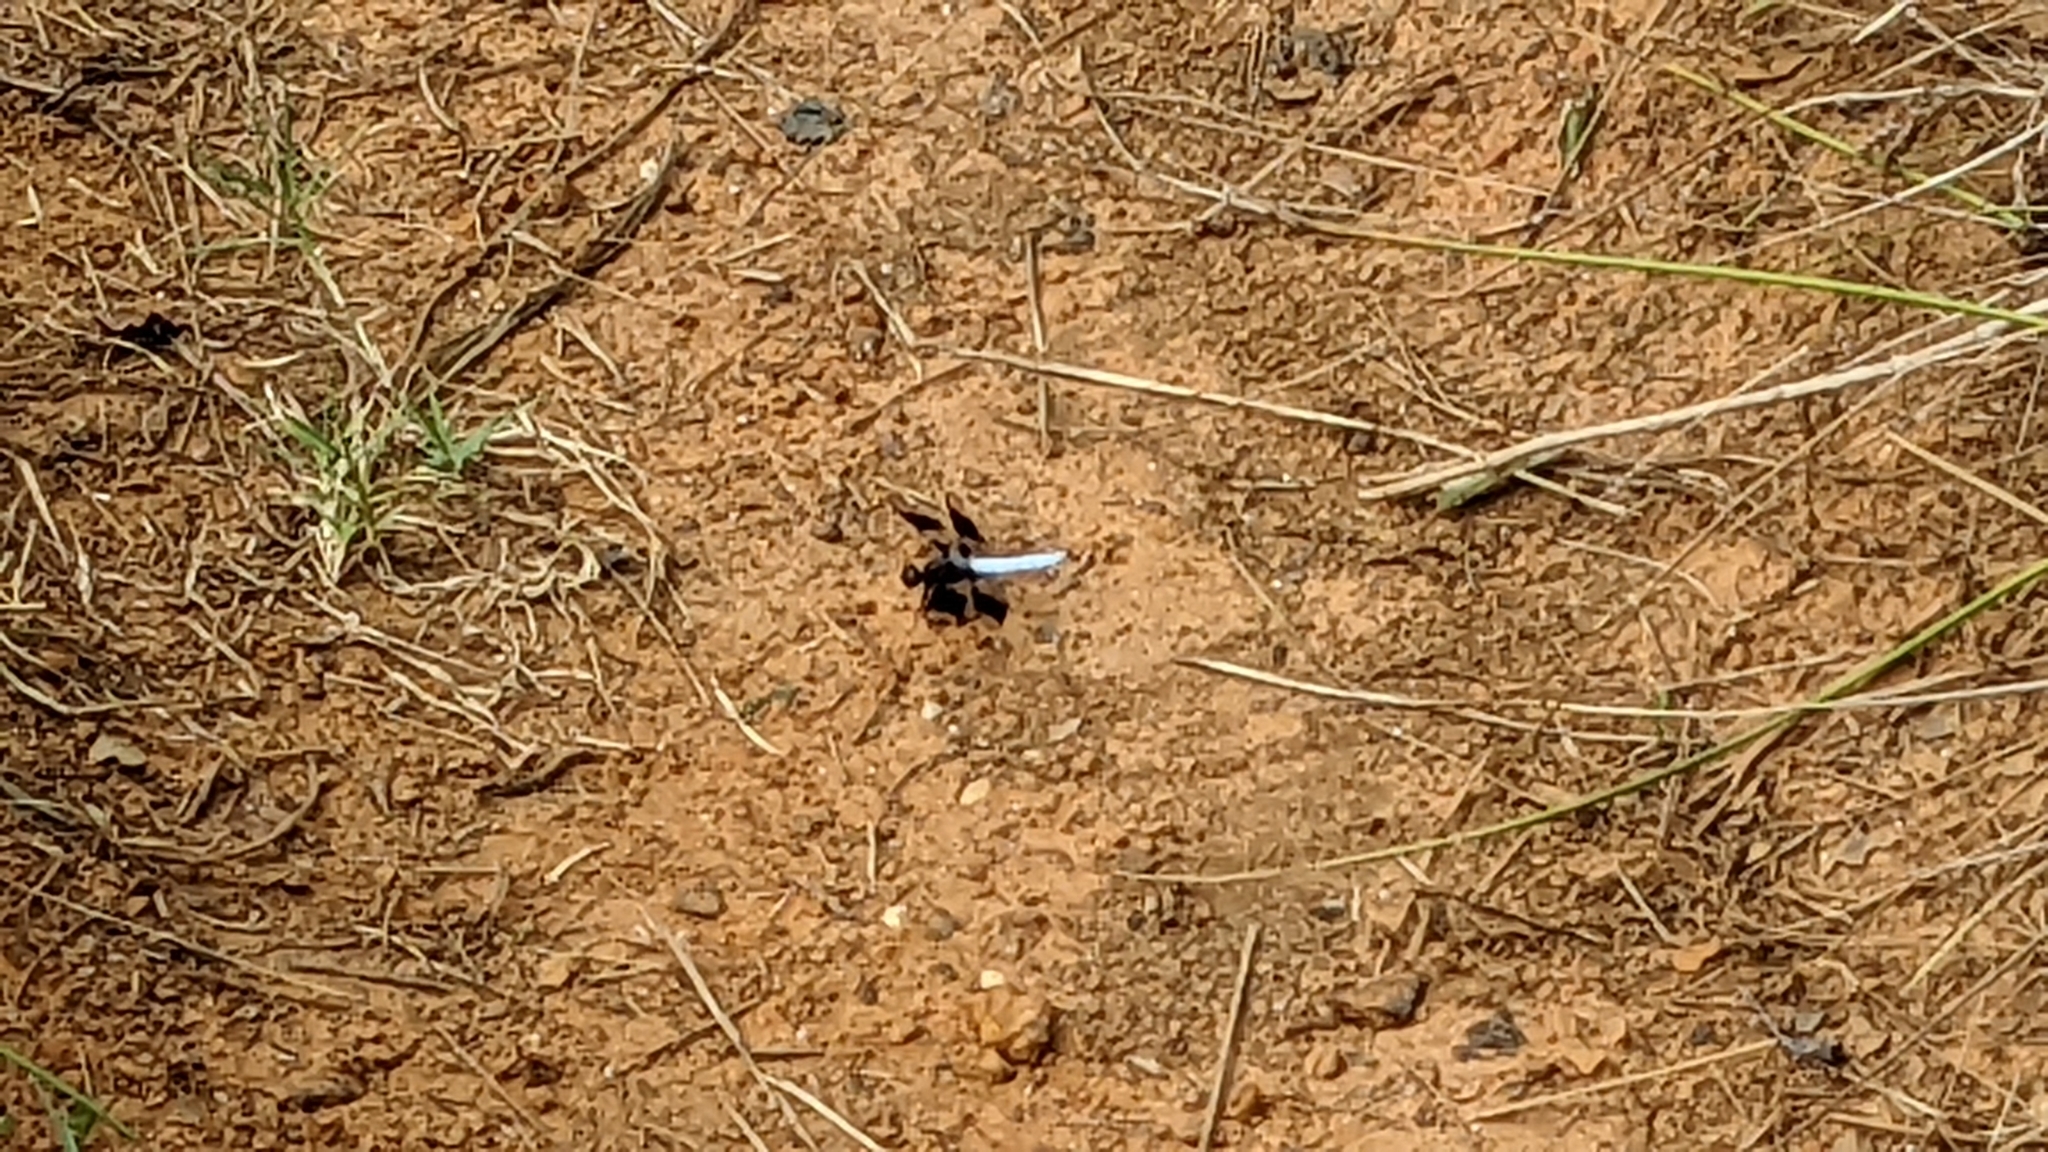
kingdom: Animalia
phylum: Arthropoda
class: Insecta
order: Odonata
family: Libellulidae
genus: Plathemis
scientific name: Plathemis lydia
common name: Common whitetail
